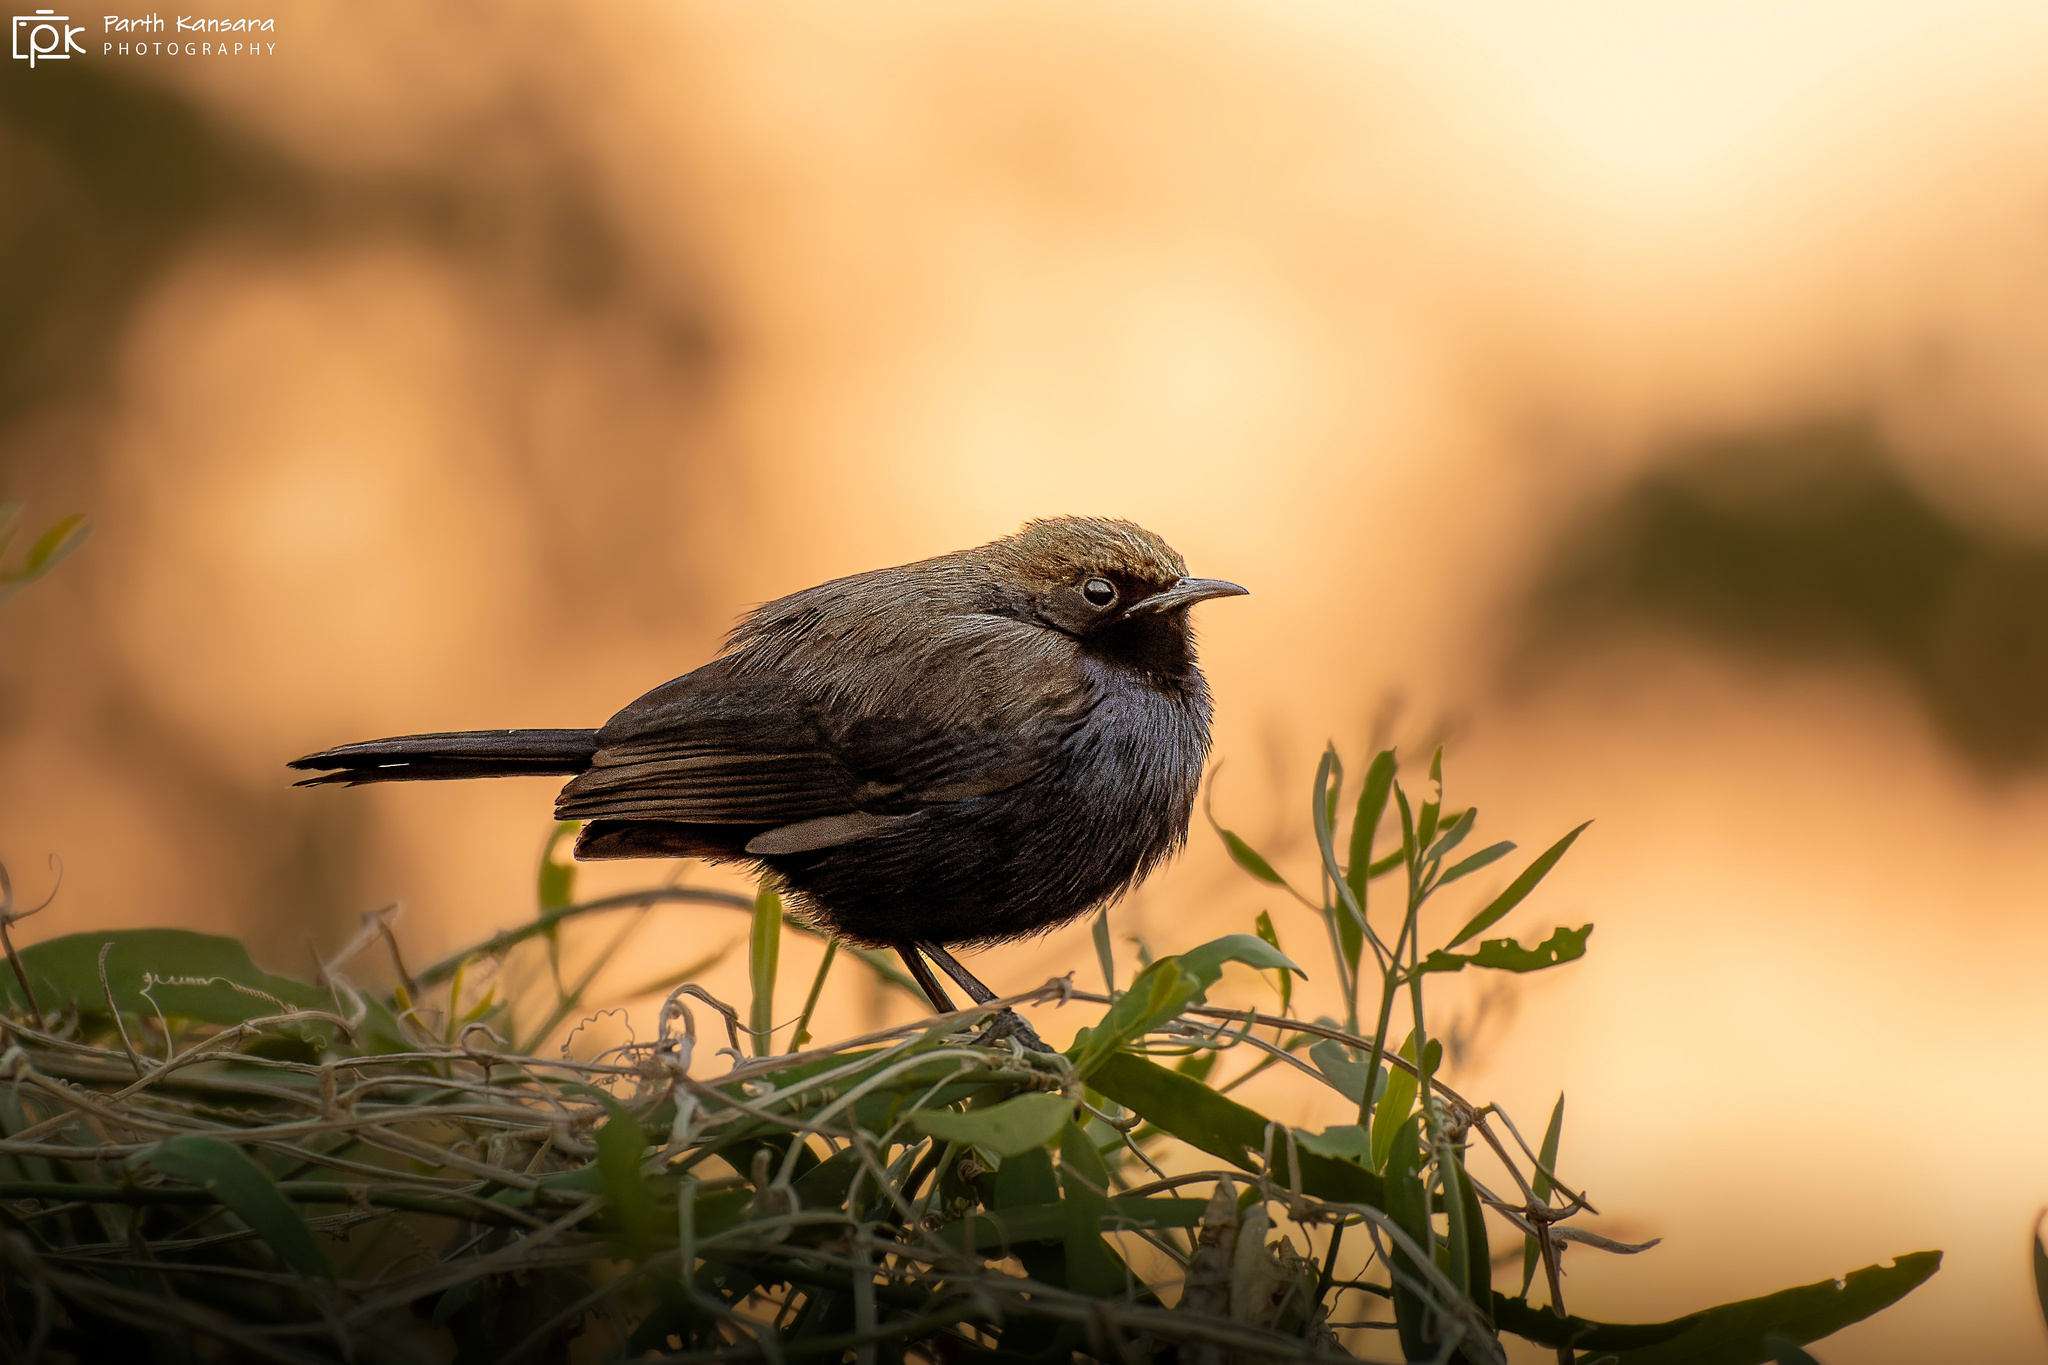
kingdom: Animalia
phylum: Chordata
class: Aves
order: Passeriformes
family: Muscicapidae
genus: Saxicoloides
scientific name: Saxicoloides fulicatus
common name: Indian robin
